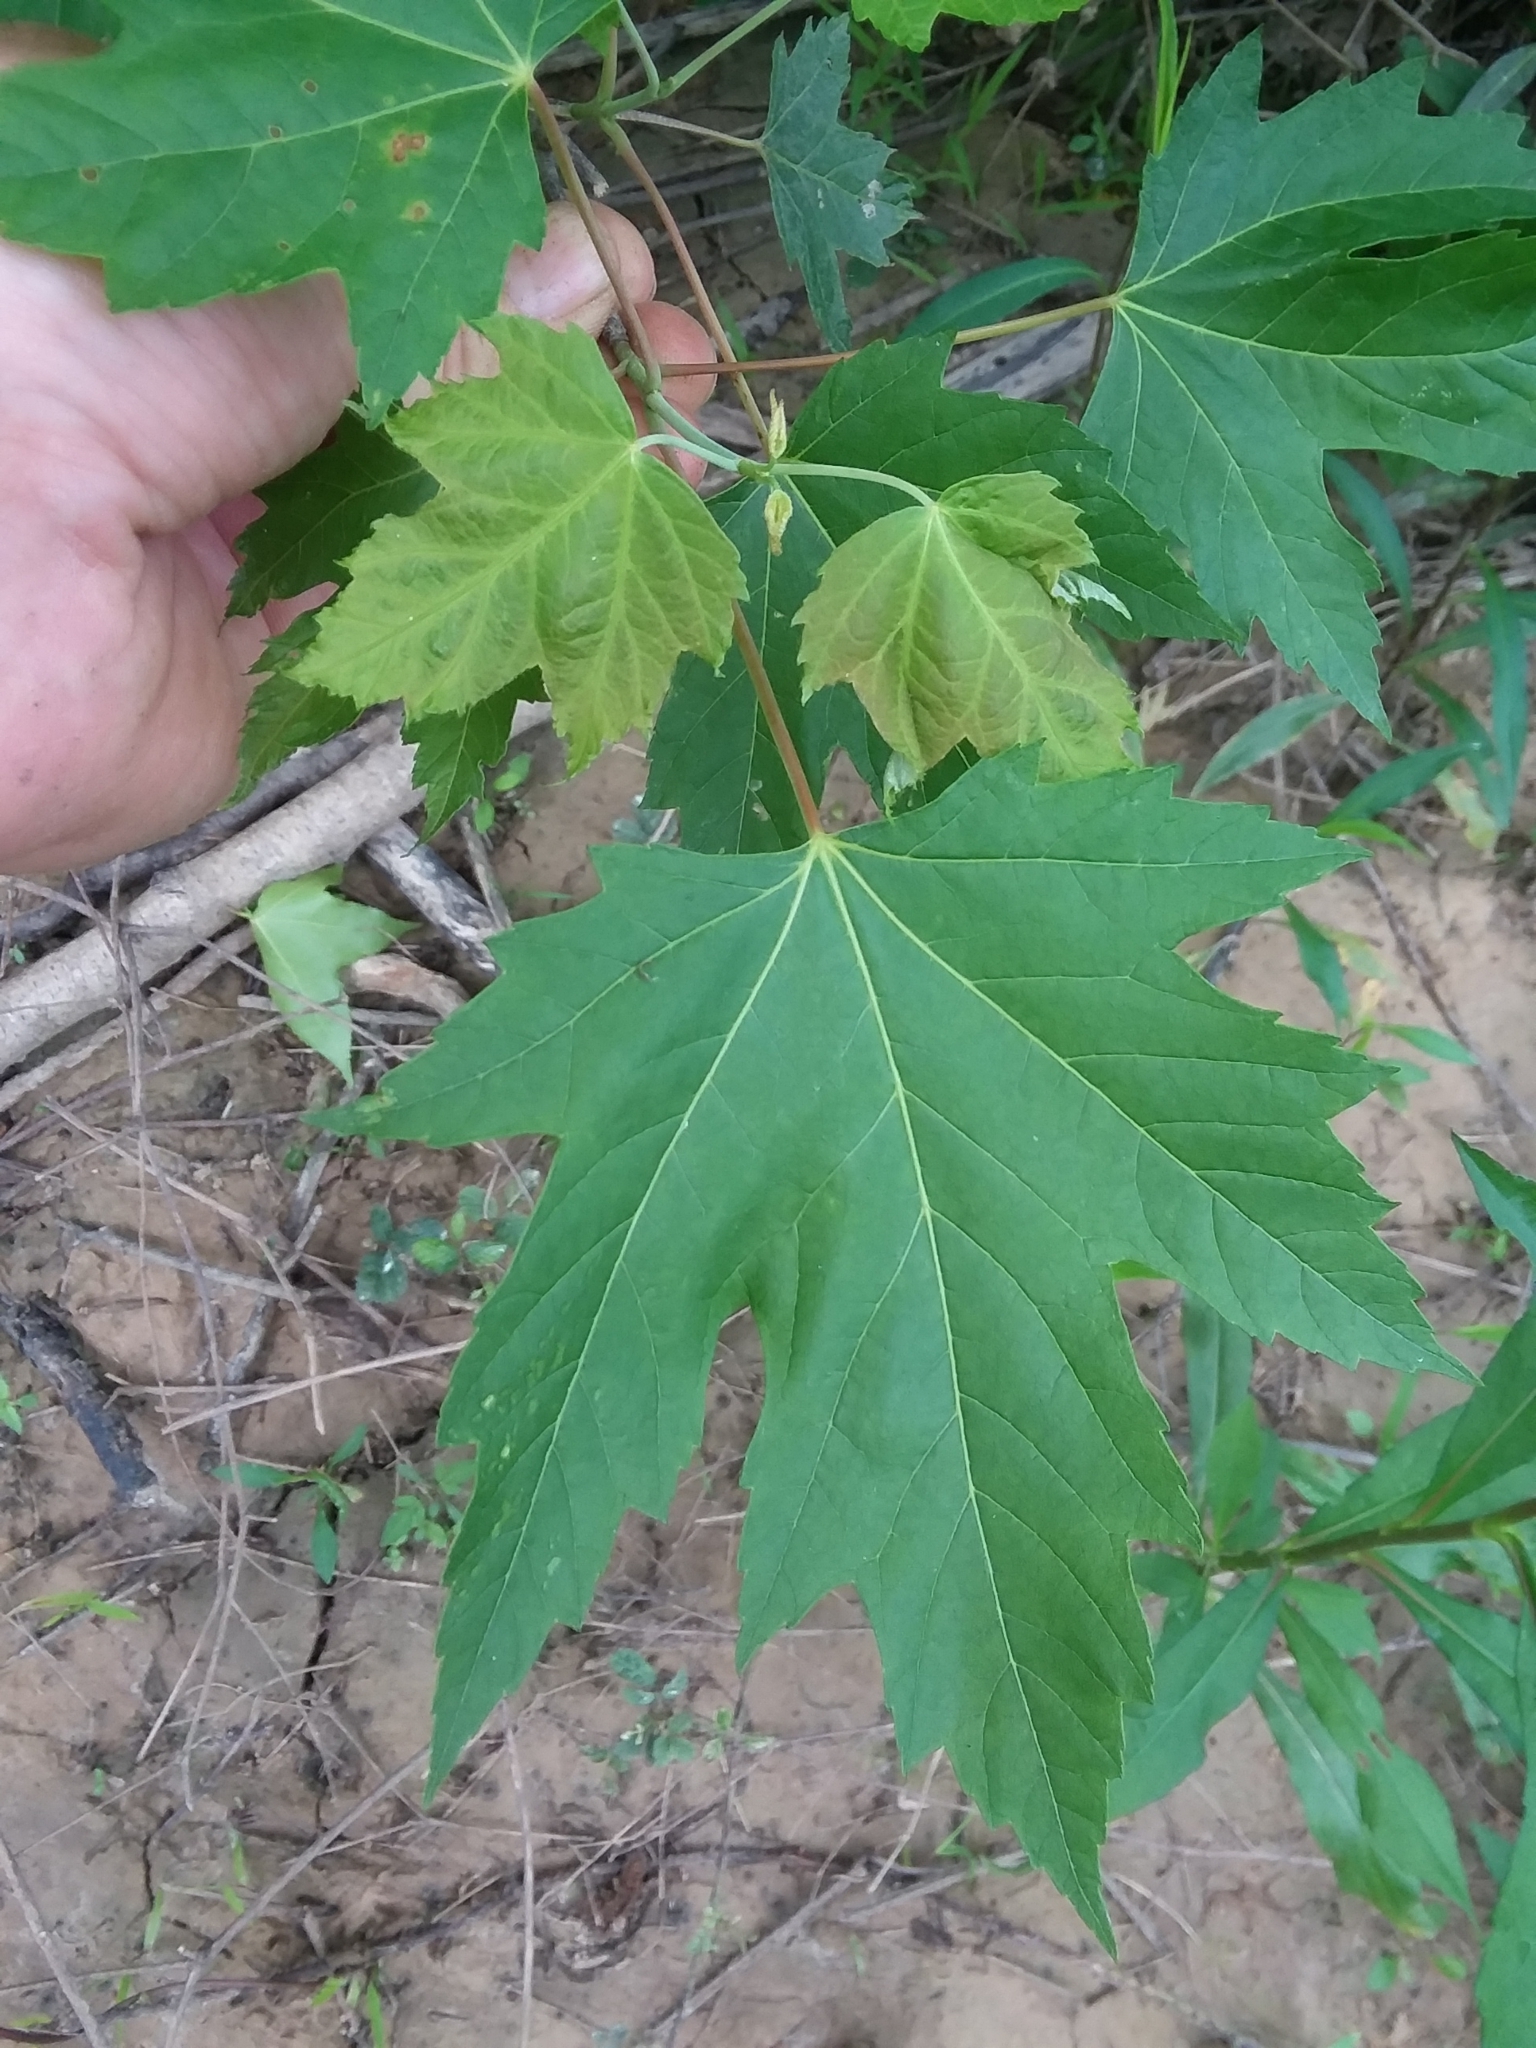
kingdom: Plantae
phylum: Tracheophyta
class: Magnoliopsida
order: Sapindales
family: Sapindaceae
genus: Acer
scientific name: Acer saccharinum
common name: Silver maple
